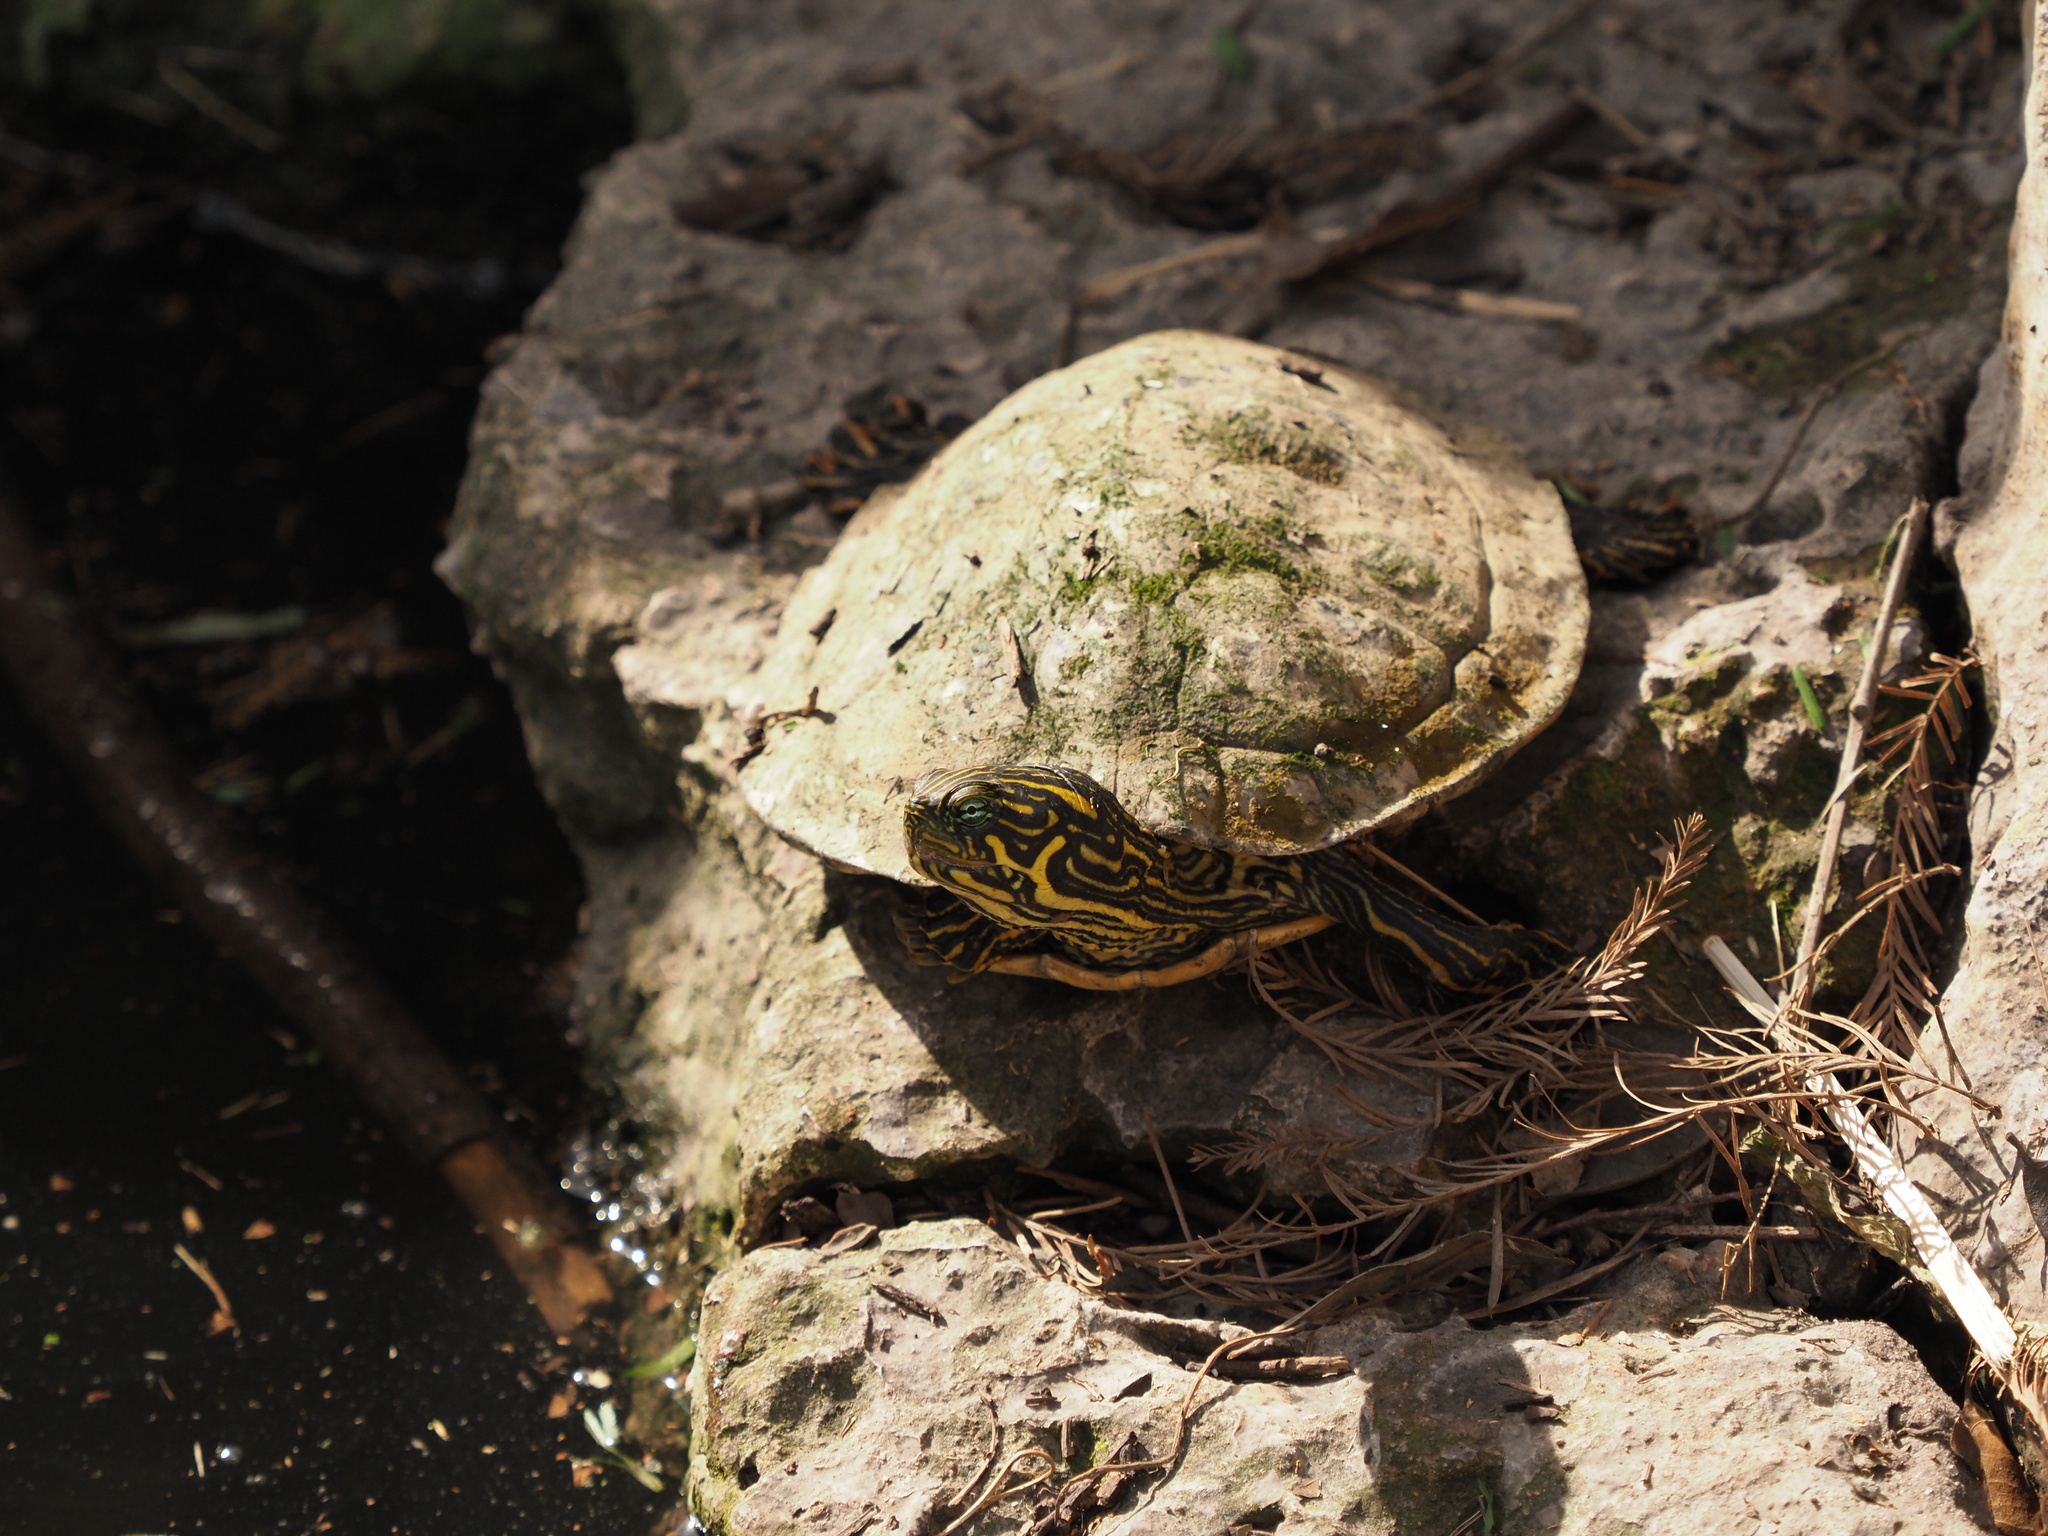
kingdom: Animalia
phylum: Chordata
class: Testudines
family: Emydidae
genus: Pseudemys
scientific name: Pseudemys texana
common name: Texas river cooter
